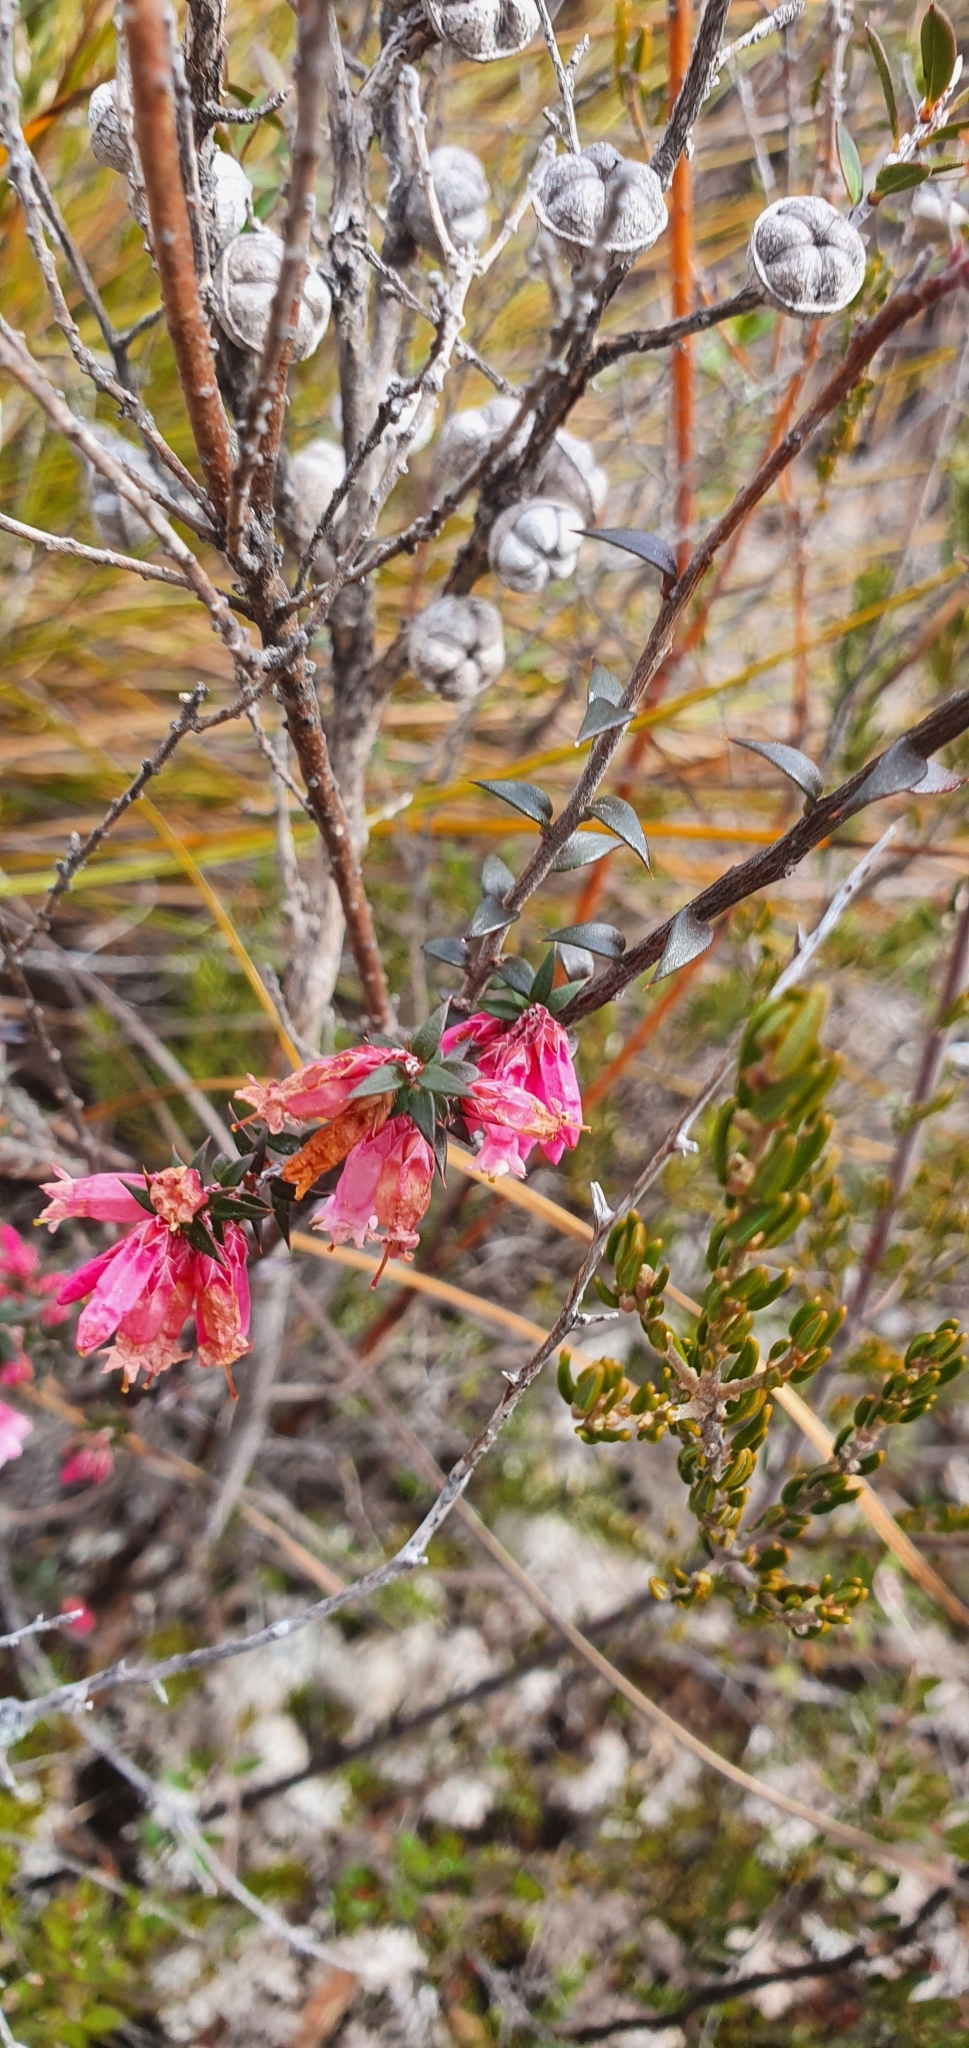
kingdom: Plantae
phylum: Tracheophyta
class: Magnoliopsida
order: Ericales
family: Ericaceae
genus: Epacris
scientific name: Epacris impressa
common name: Common-heath
